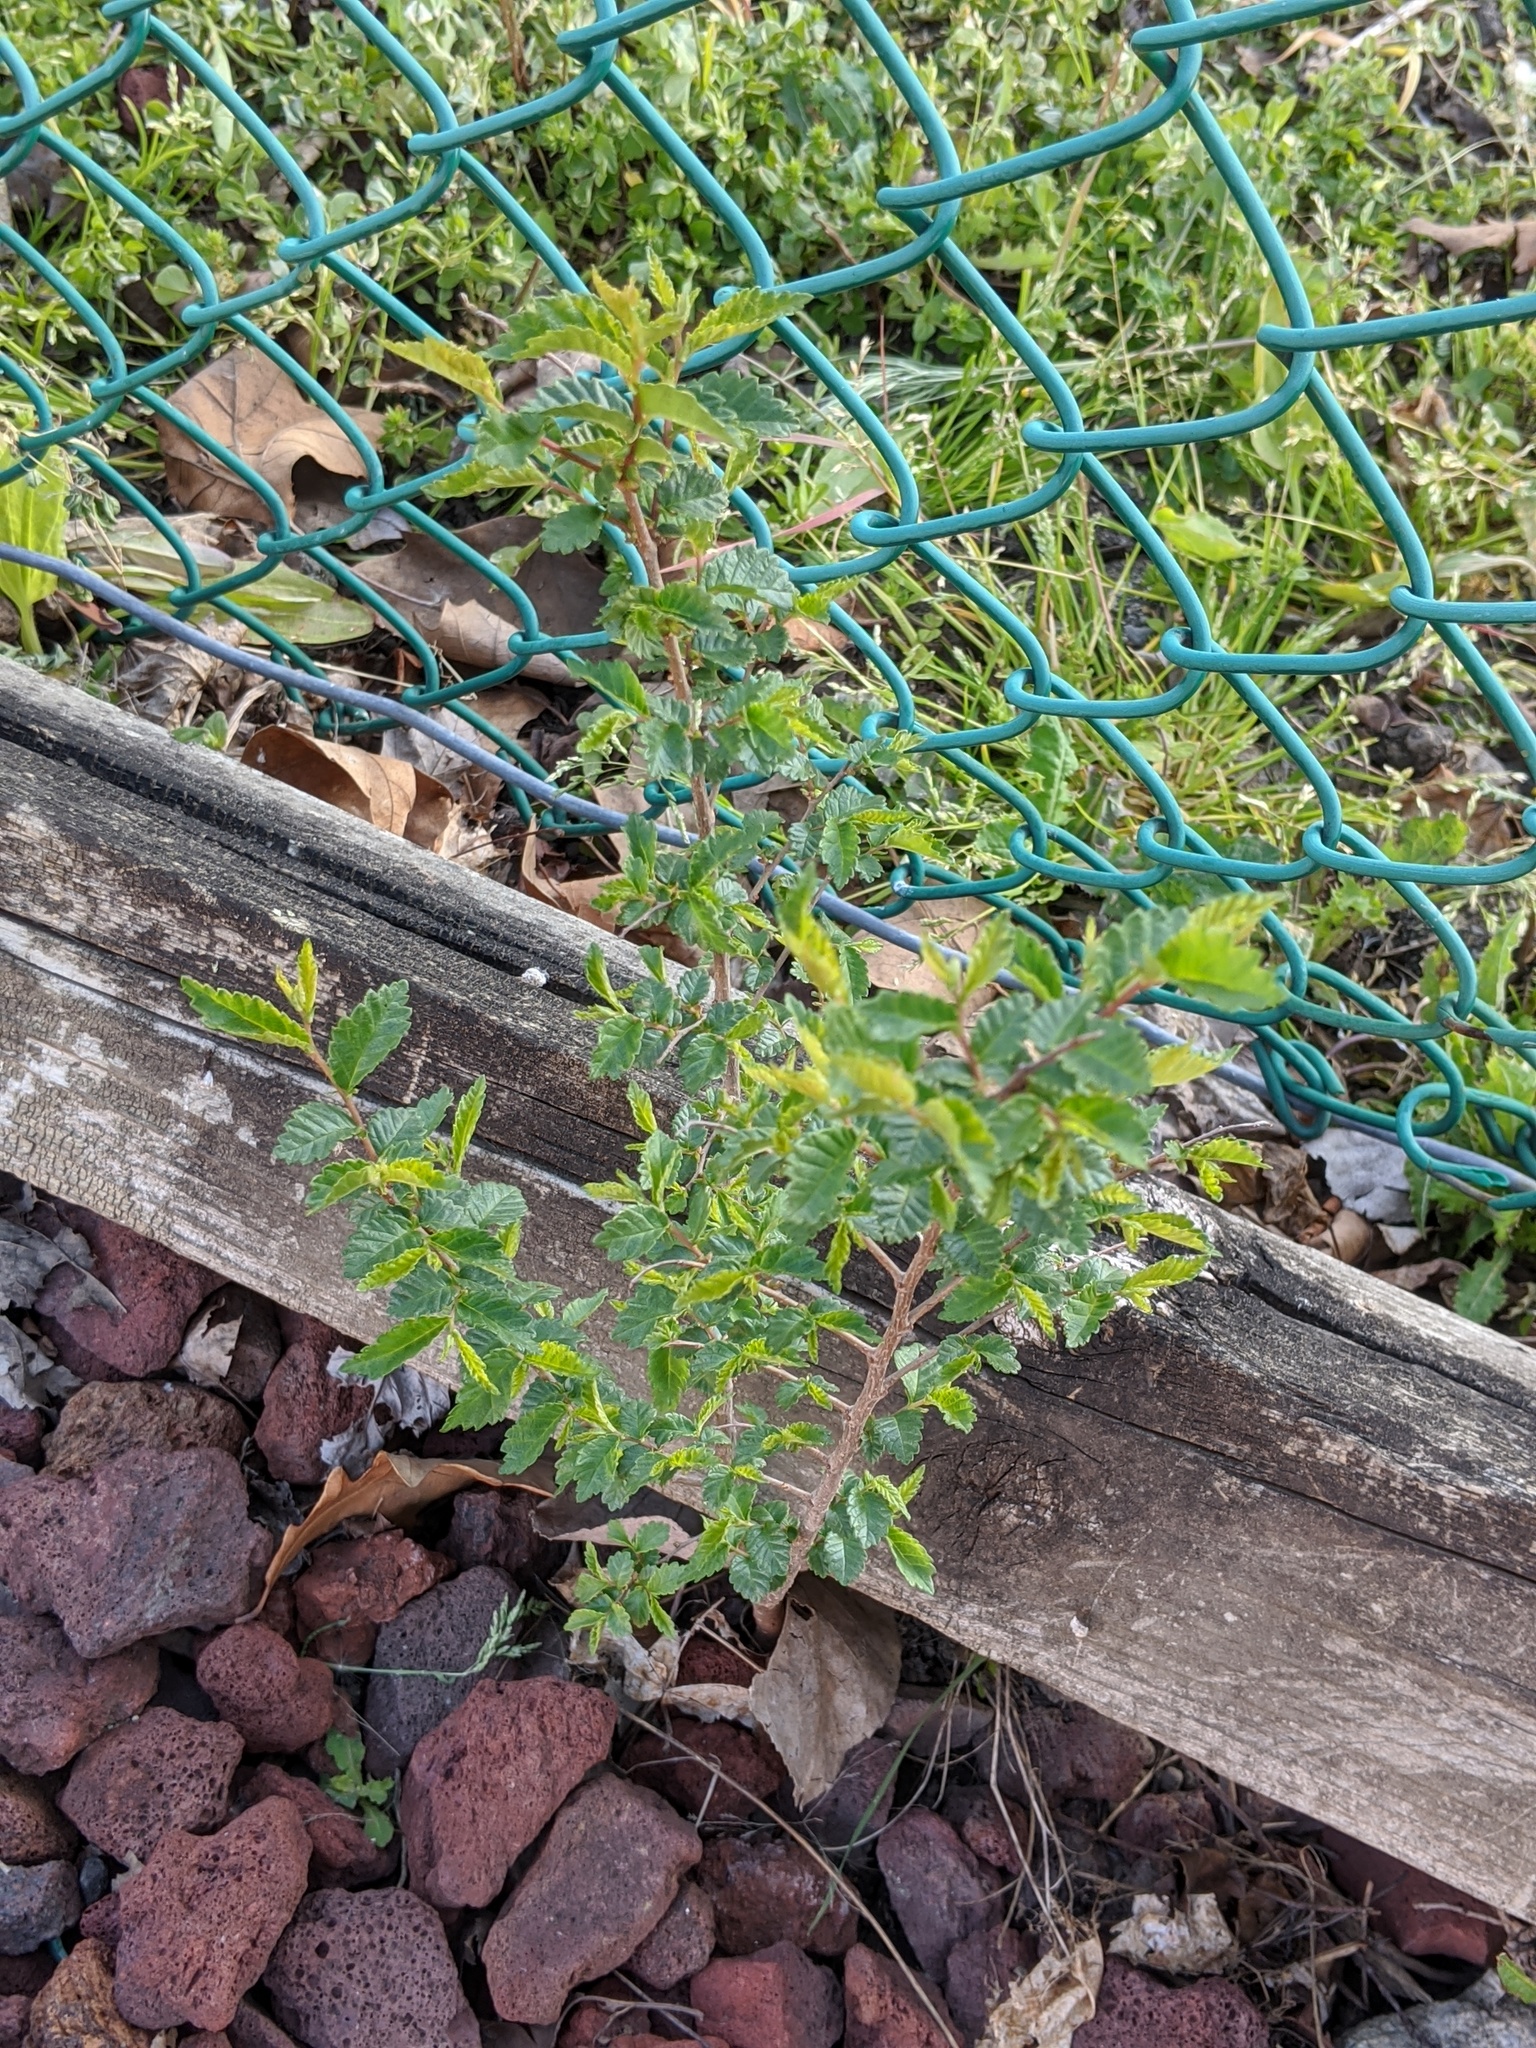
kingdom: Plantae
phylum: Tracheophyta
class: Magnoliopsida
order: Rosales
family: Ulmaceae
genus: Ulmus
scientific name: Ulmus pumila
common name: Siberian elm
